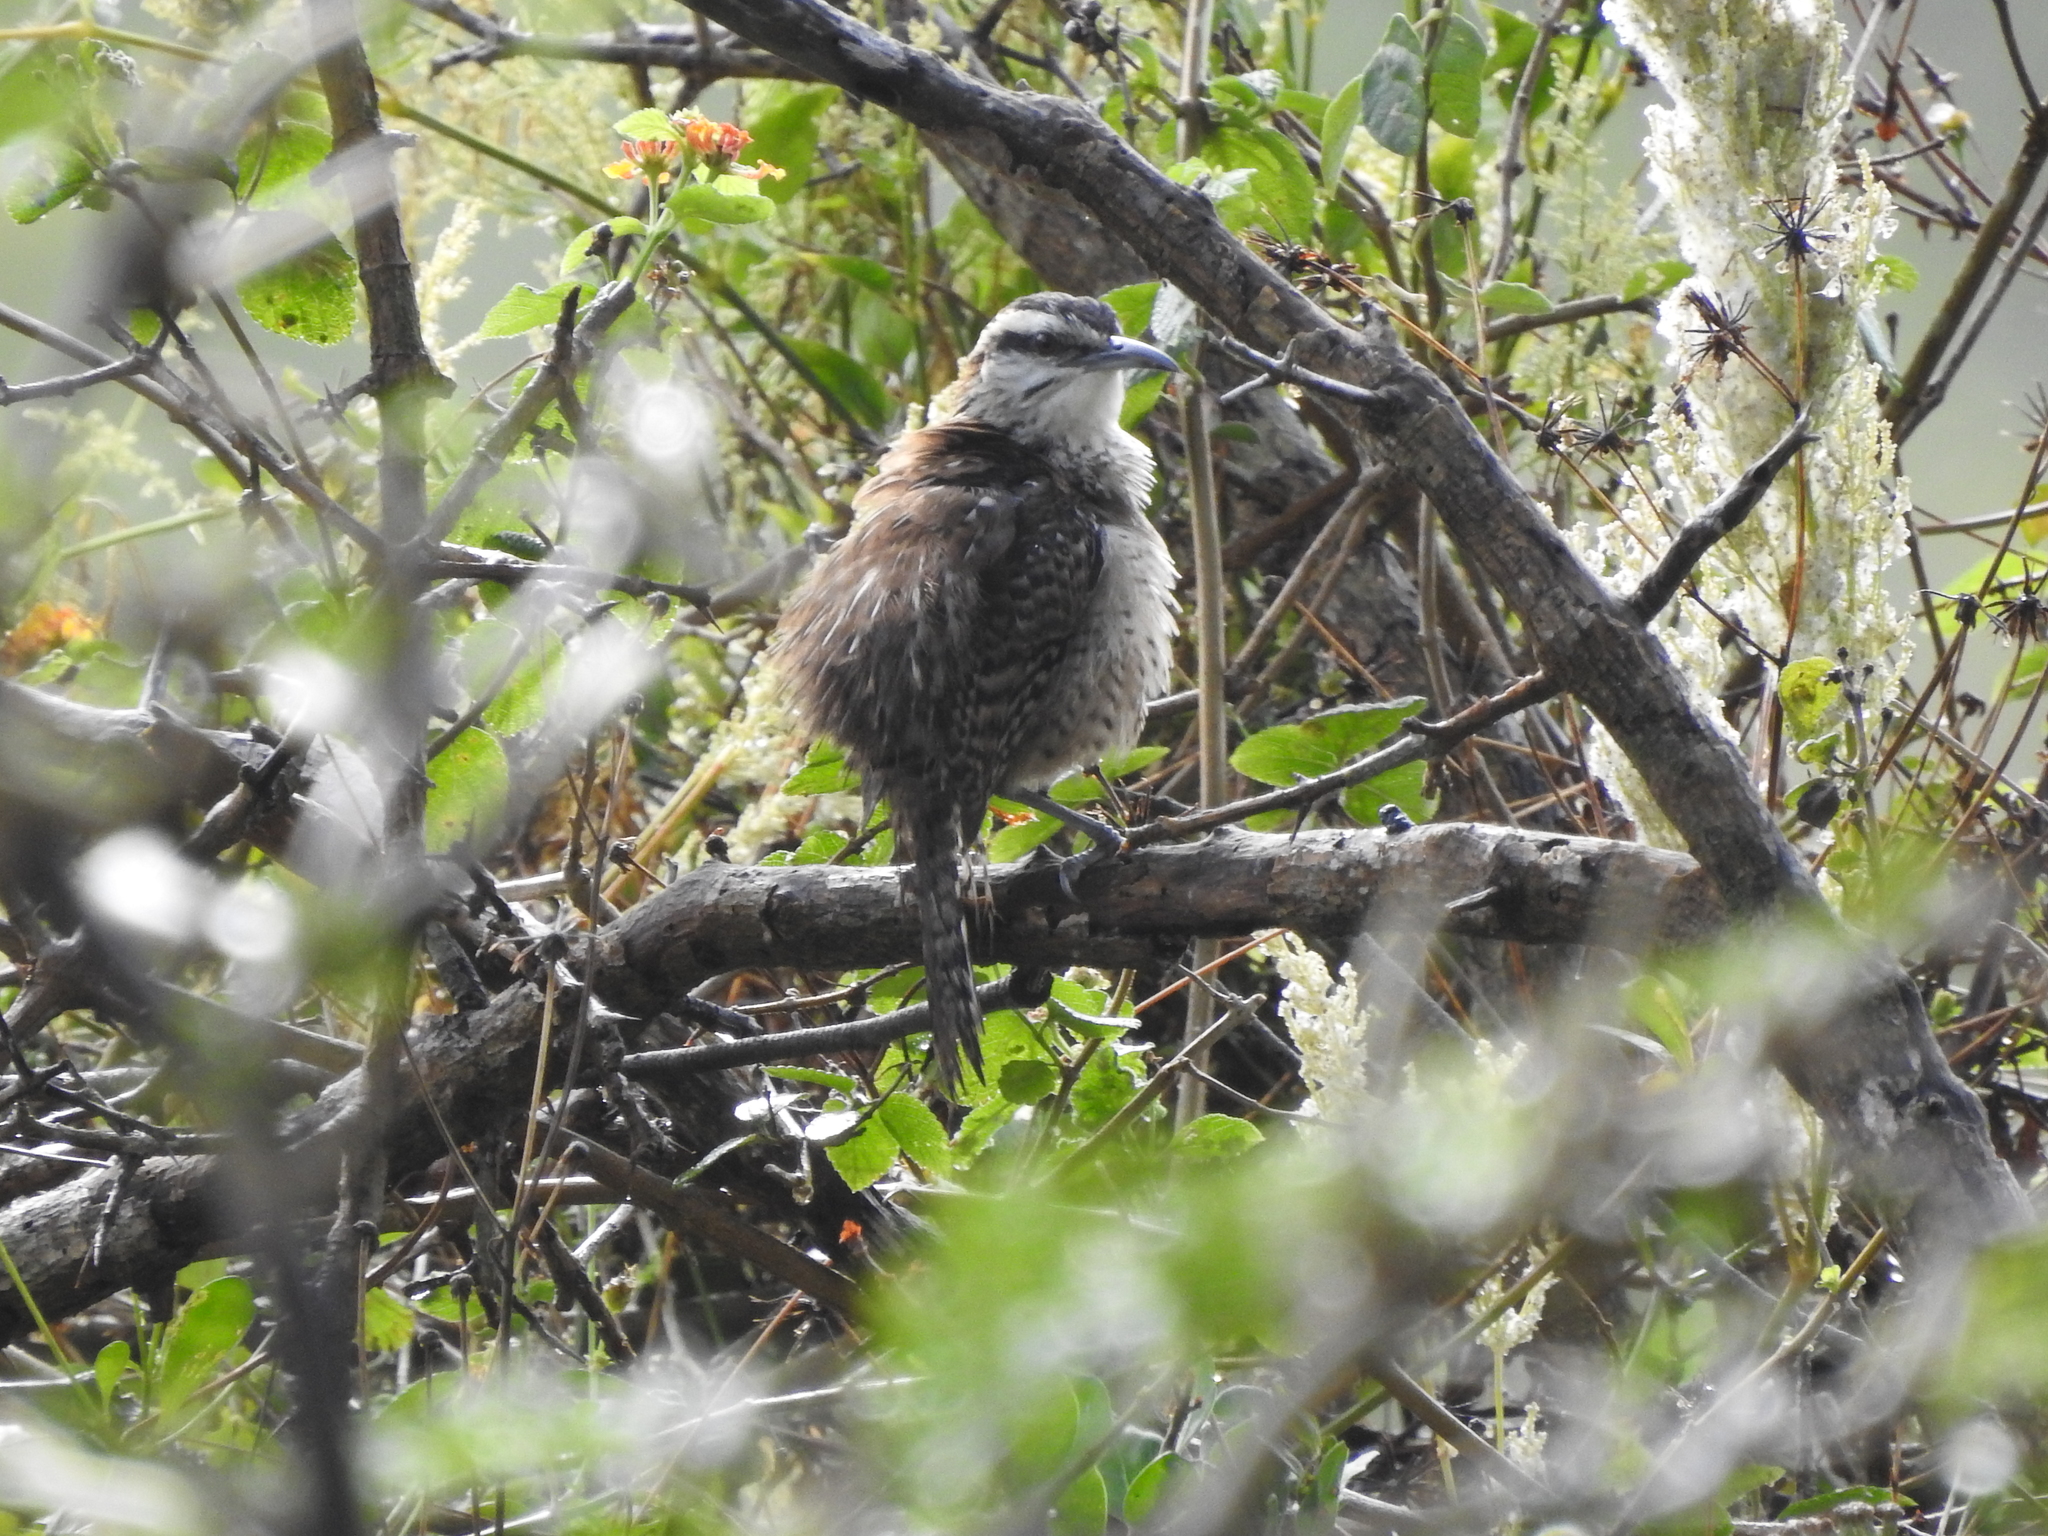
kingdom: Animalia
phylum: Chordata
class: Aves
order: Passeriformes
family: Troglodytidae
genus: Campylorhynchus
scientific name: Campylorhynchus rufinucha
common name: Rufous-naped wren
